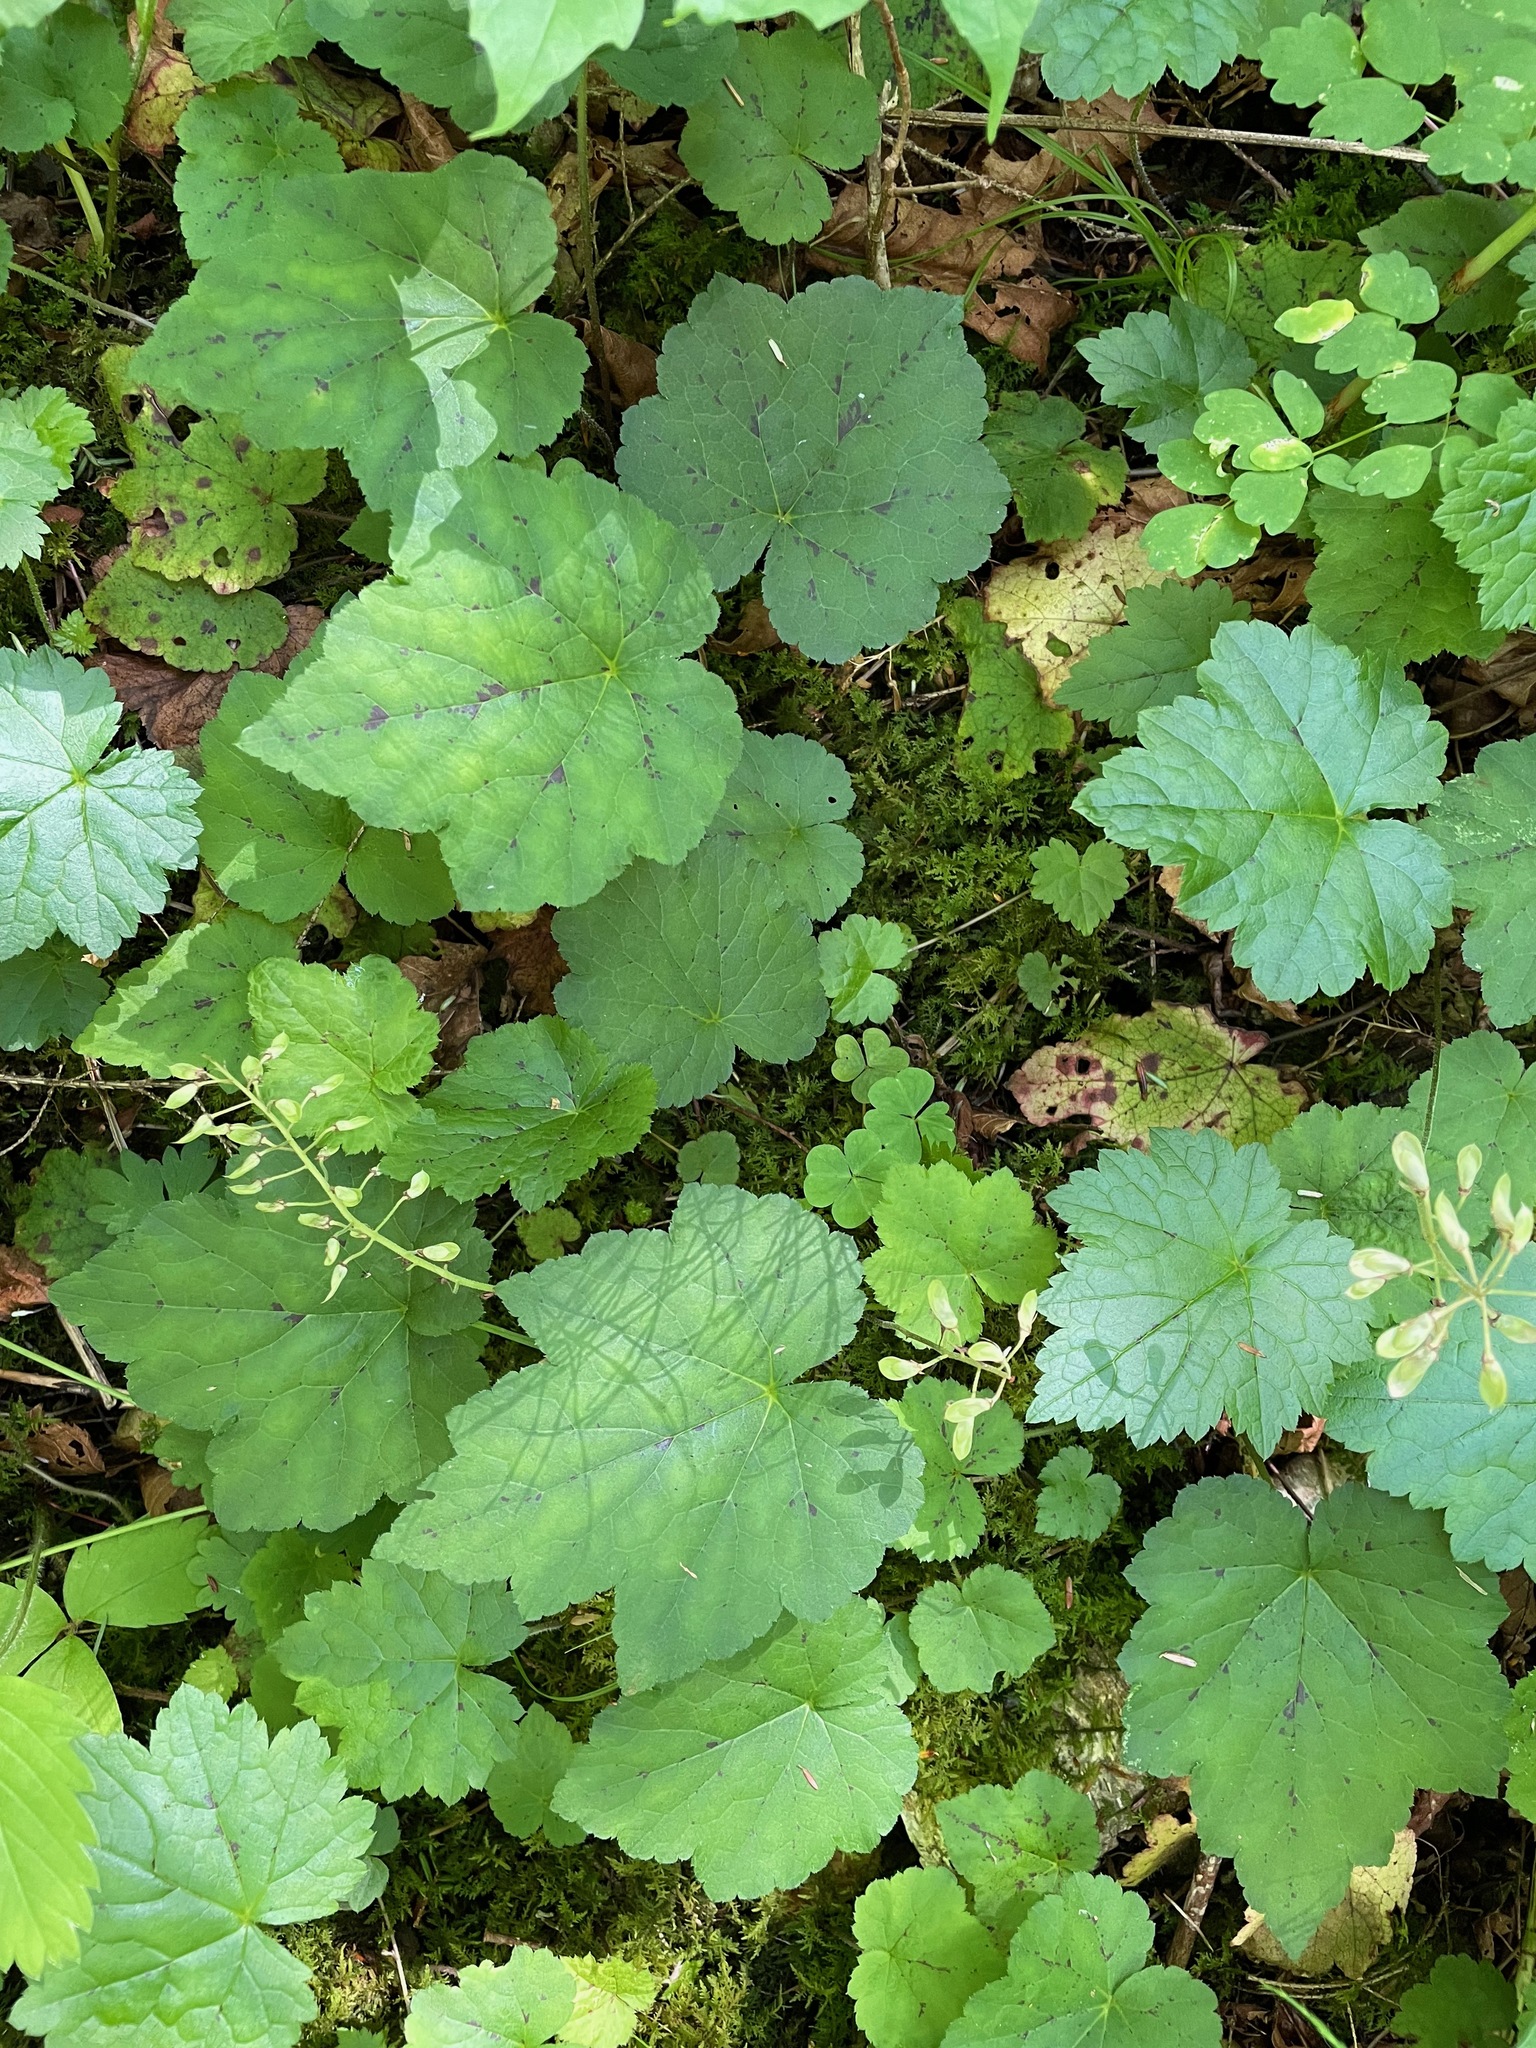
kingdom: Plantae
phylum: Tracheophyta
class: Magnoliopsida
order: Saxifragales
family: Saxifragaceae
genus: Tiarella
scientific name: Tiarella stolonifera
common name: Stoloniferous foamflower
